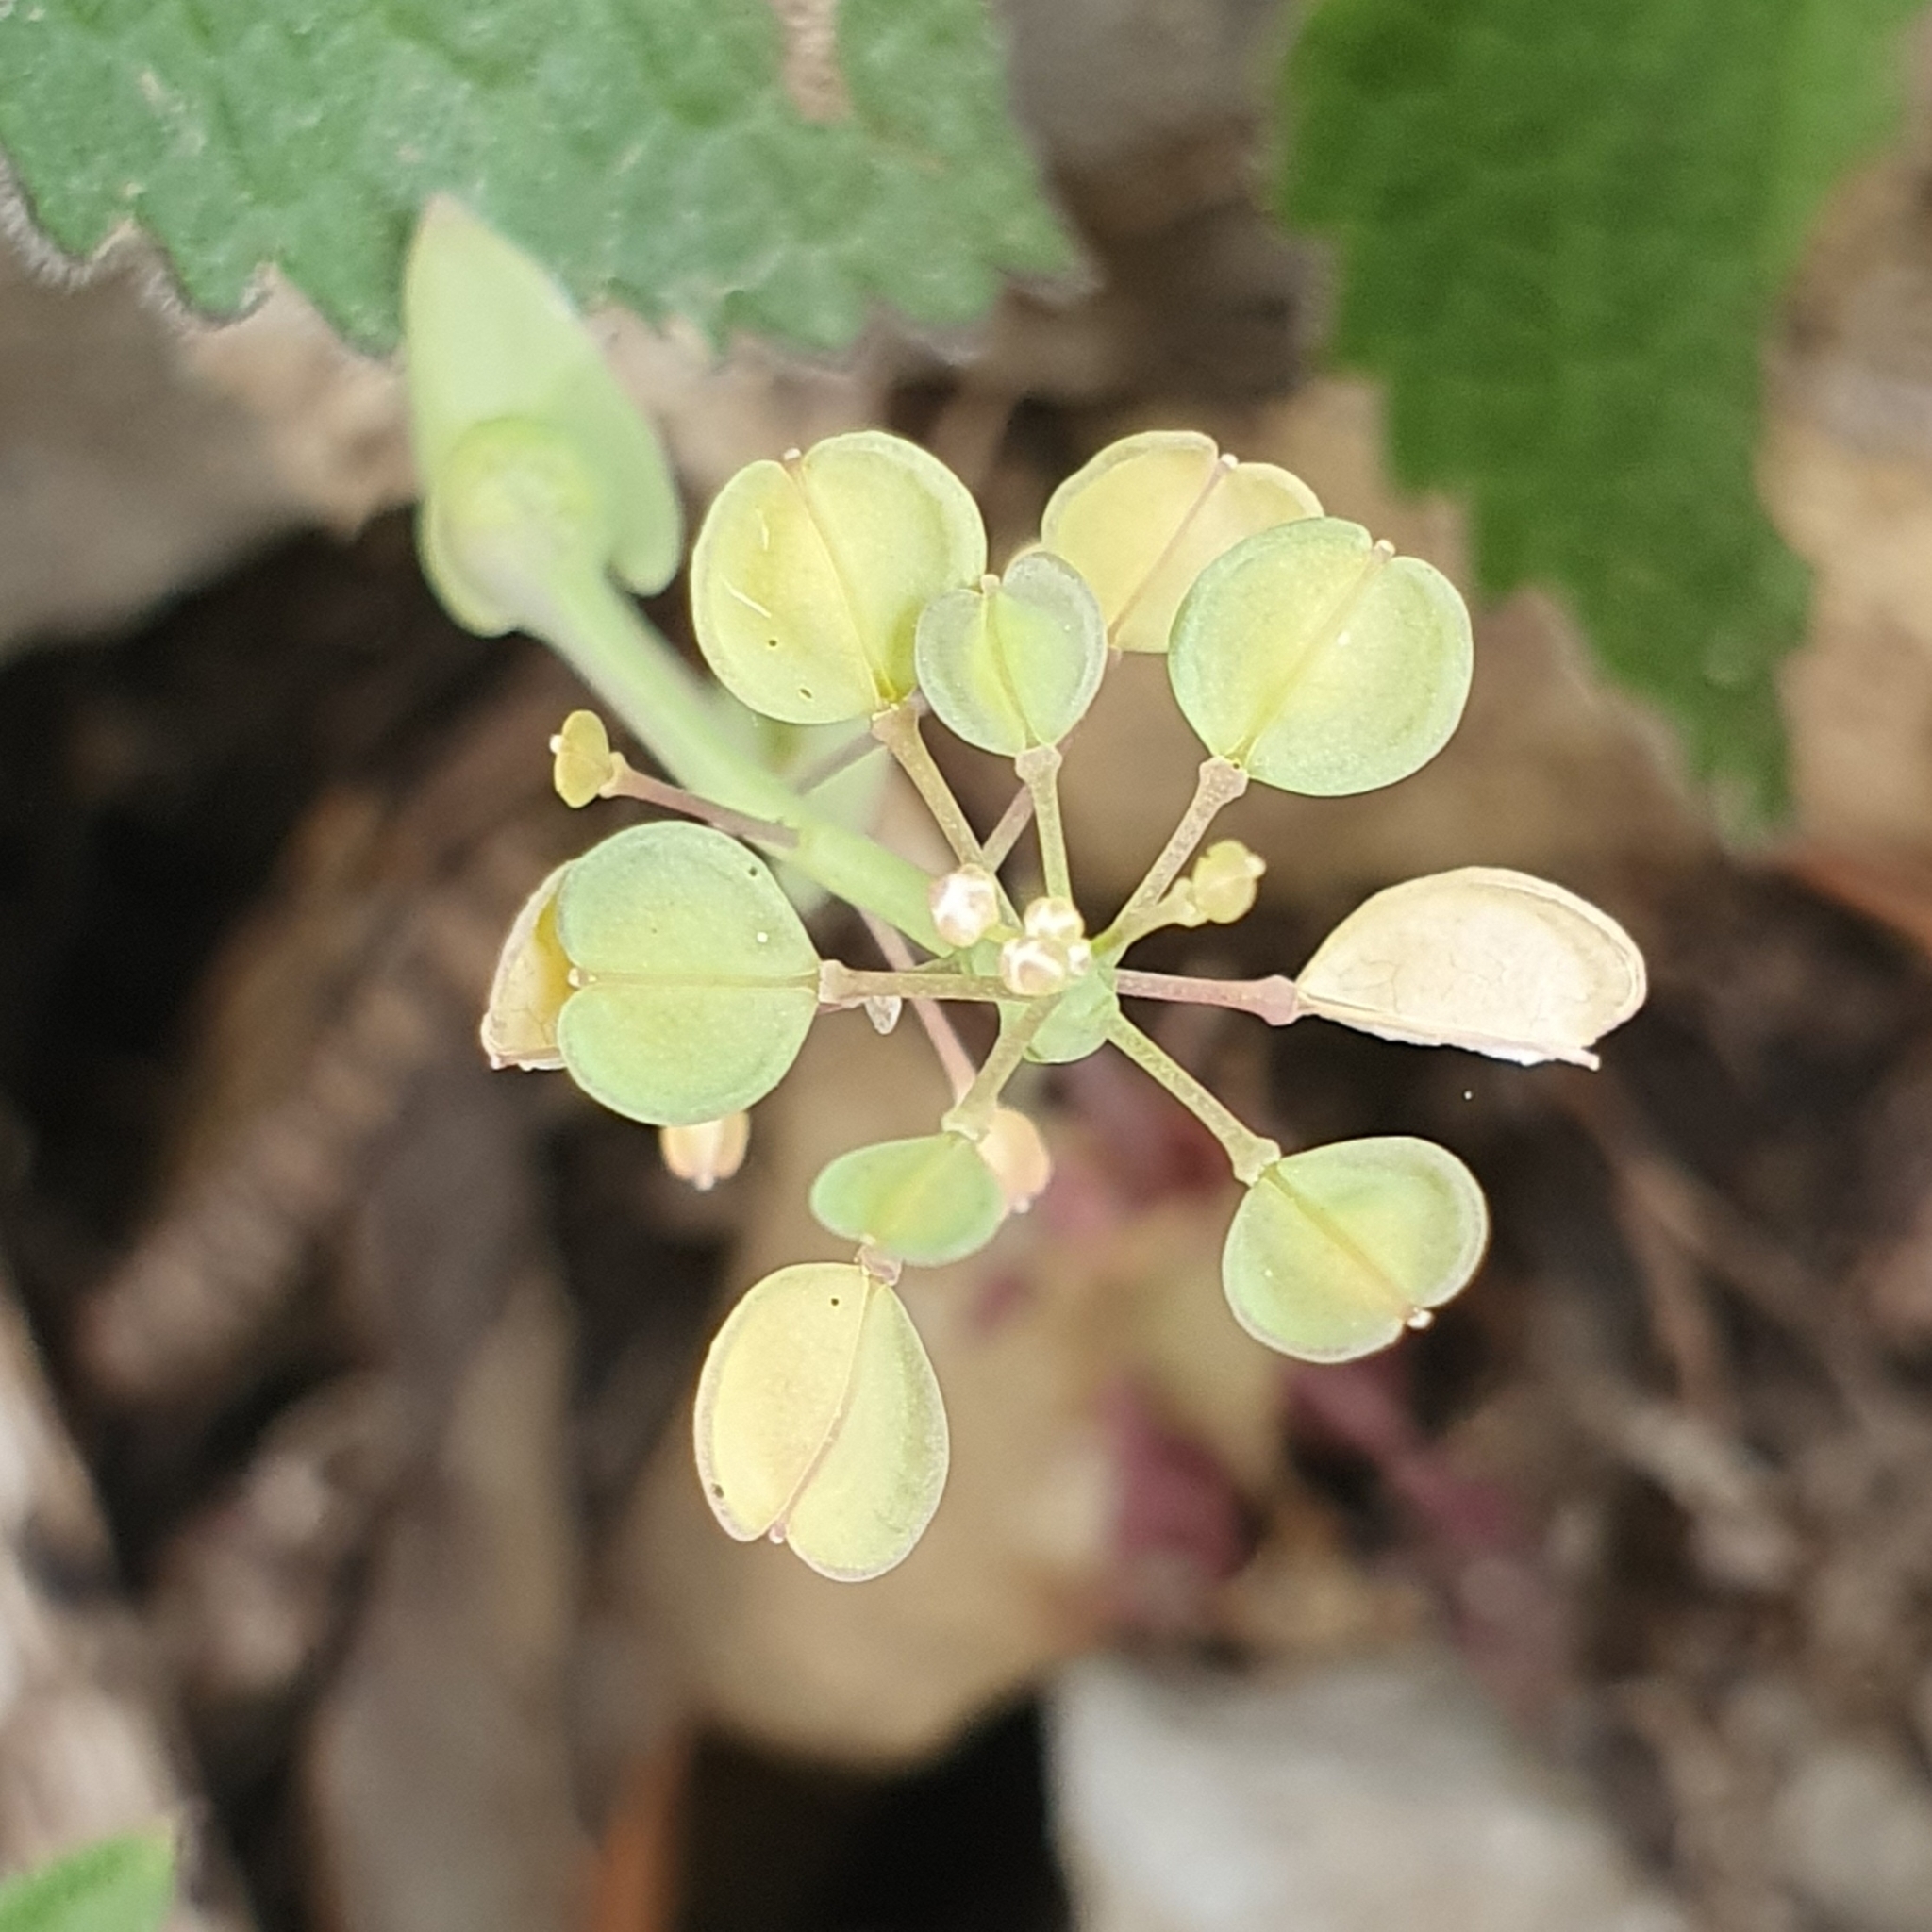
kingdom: Plantae
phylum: Tracheophyta
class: Magnoliopsida
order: Brassicales
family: Brassicaceae
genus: Noccaea
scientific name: Noccaea perfoliata
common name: Perfoliate pennycress
